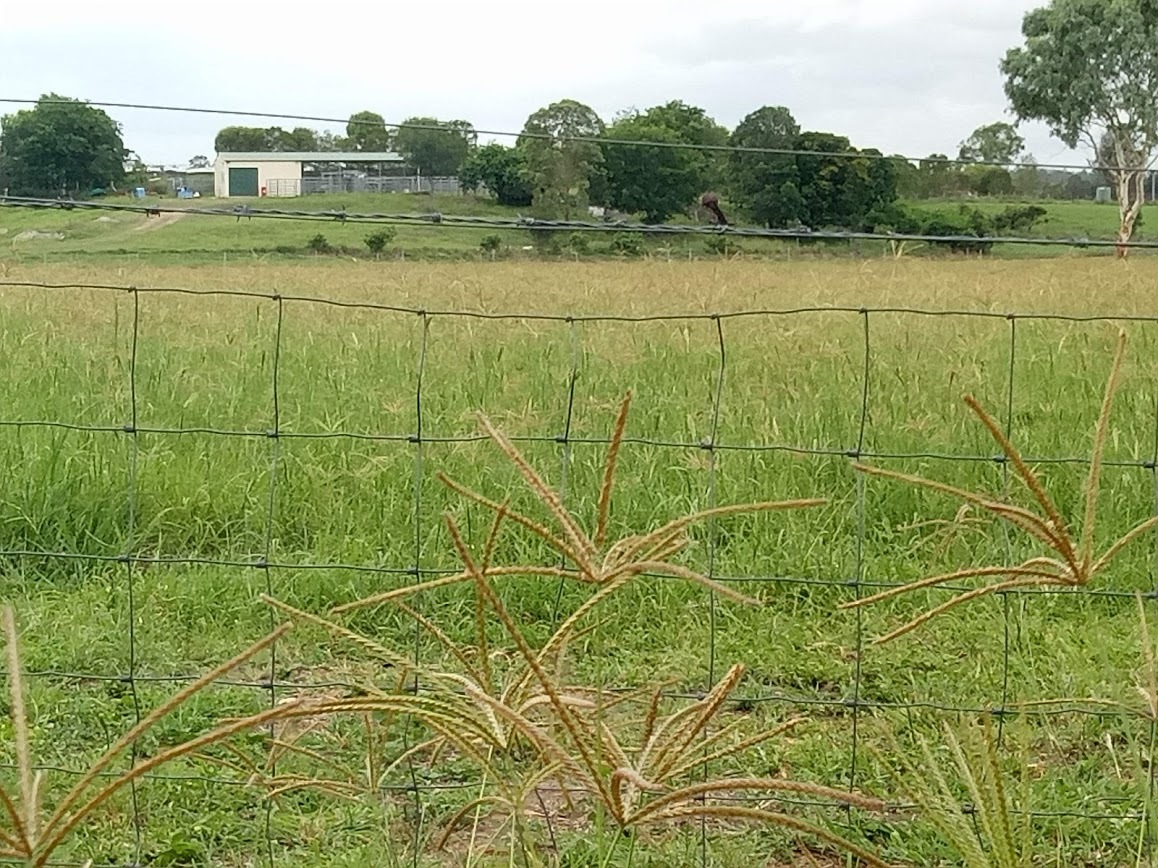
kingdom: Plantae
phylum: Tracheophyta
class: Liliopsida
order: Poales
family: Poaceae
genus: Chloris
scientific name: Chloris gayana
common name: Rhodes grass
